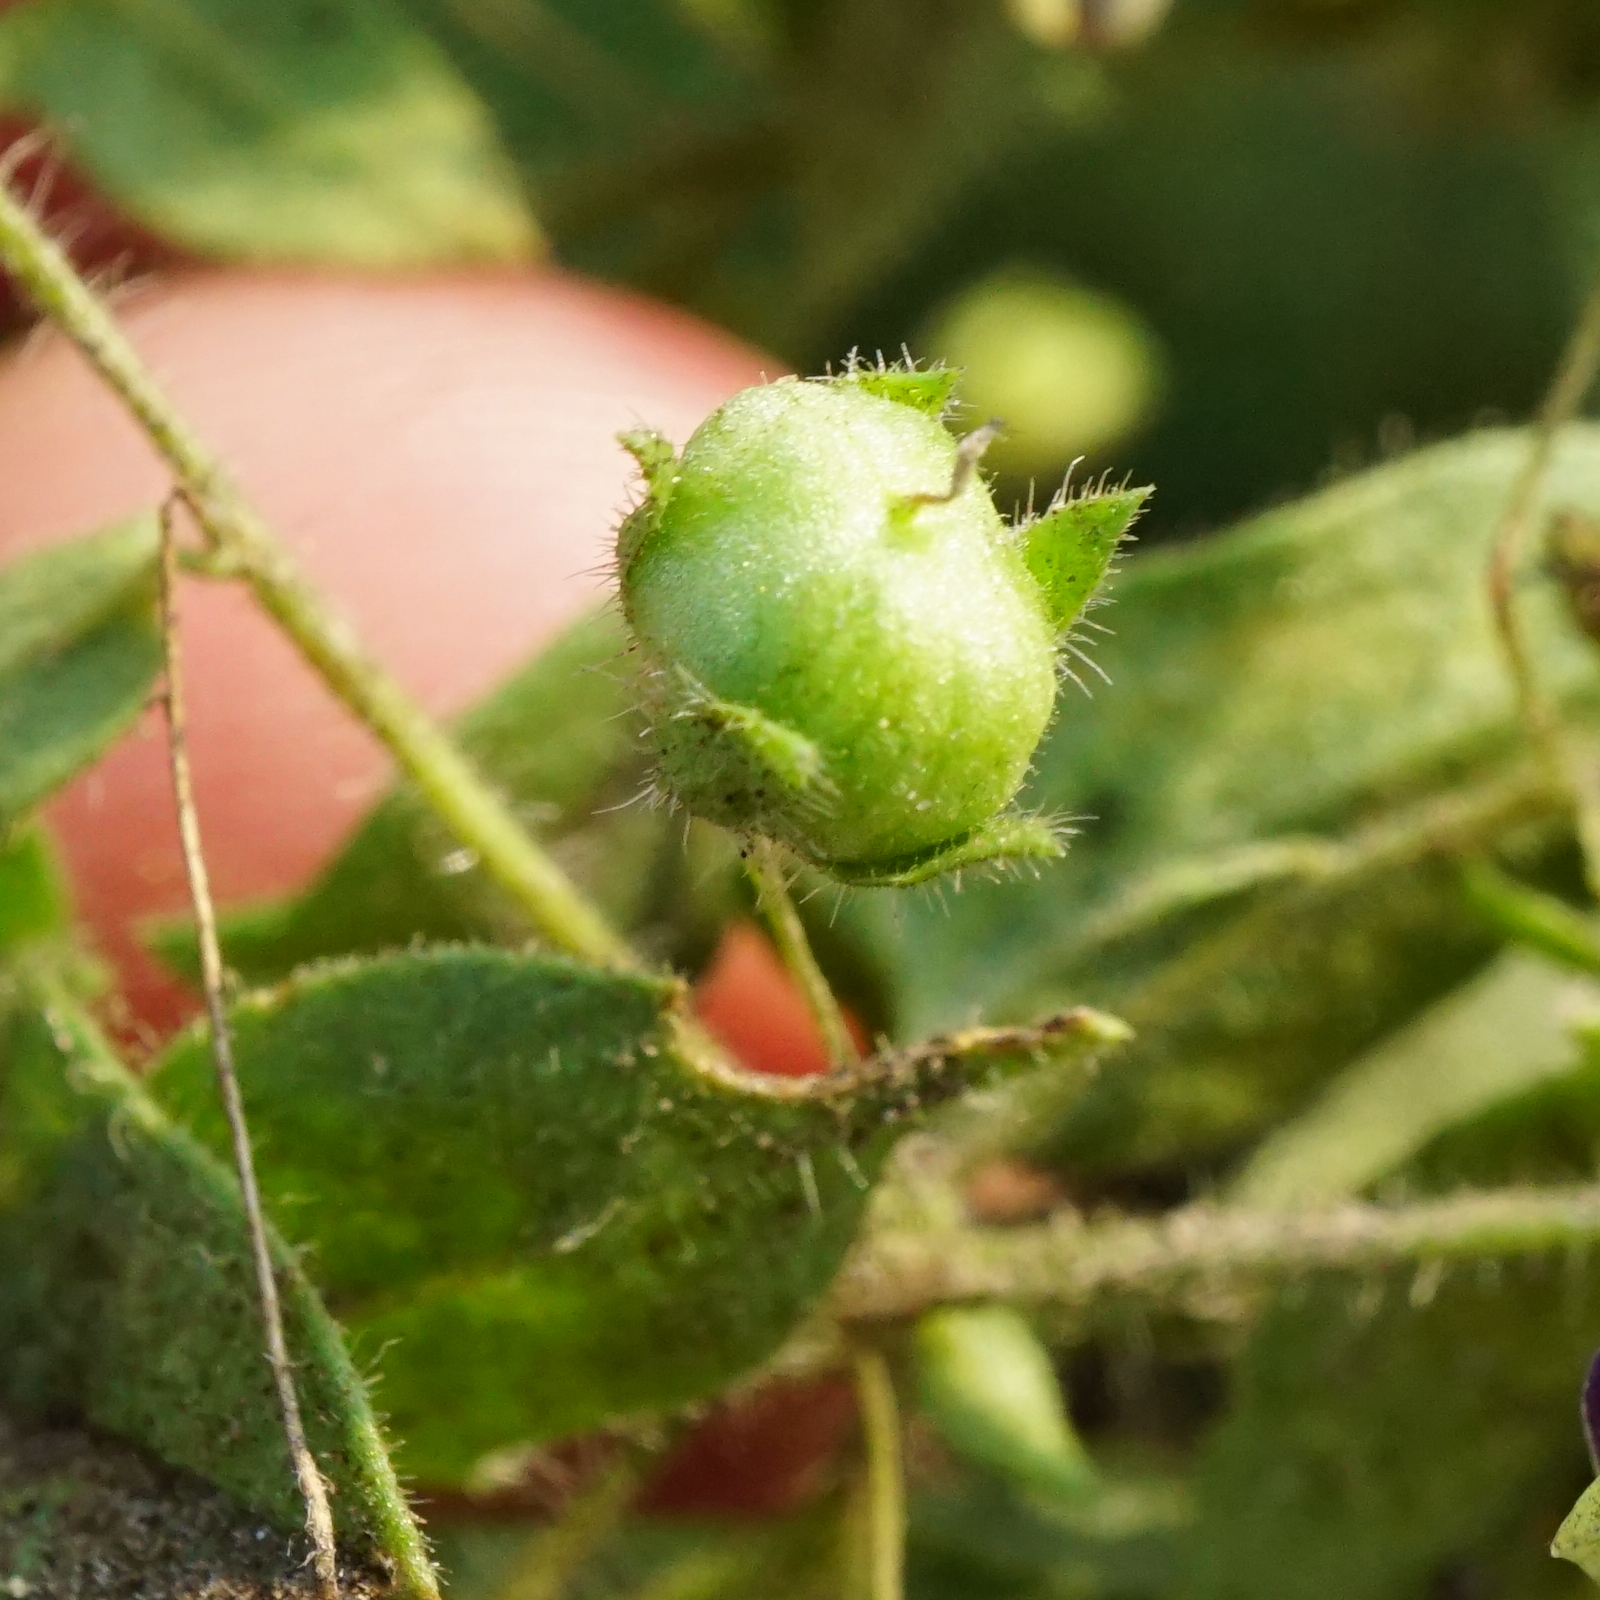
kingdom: Plantae
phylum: Tracheophyta
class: Magnoliopsida
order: Lamiales
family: Plantaginaceae
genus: Kickxia
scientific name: Kickxia elatine
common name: Sharp-leaved fluellen
